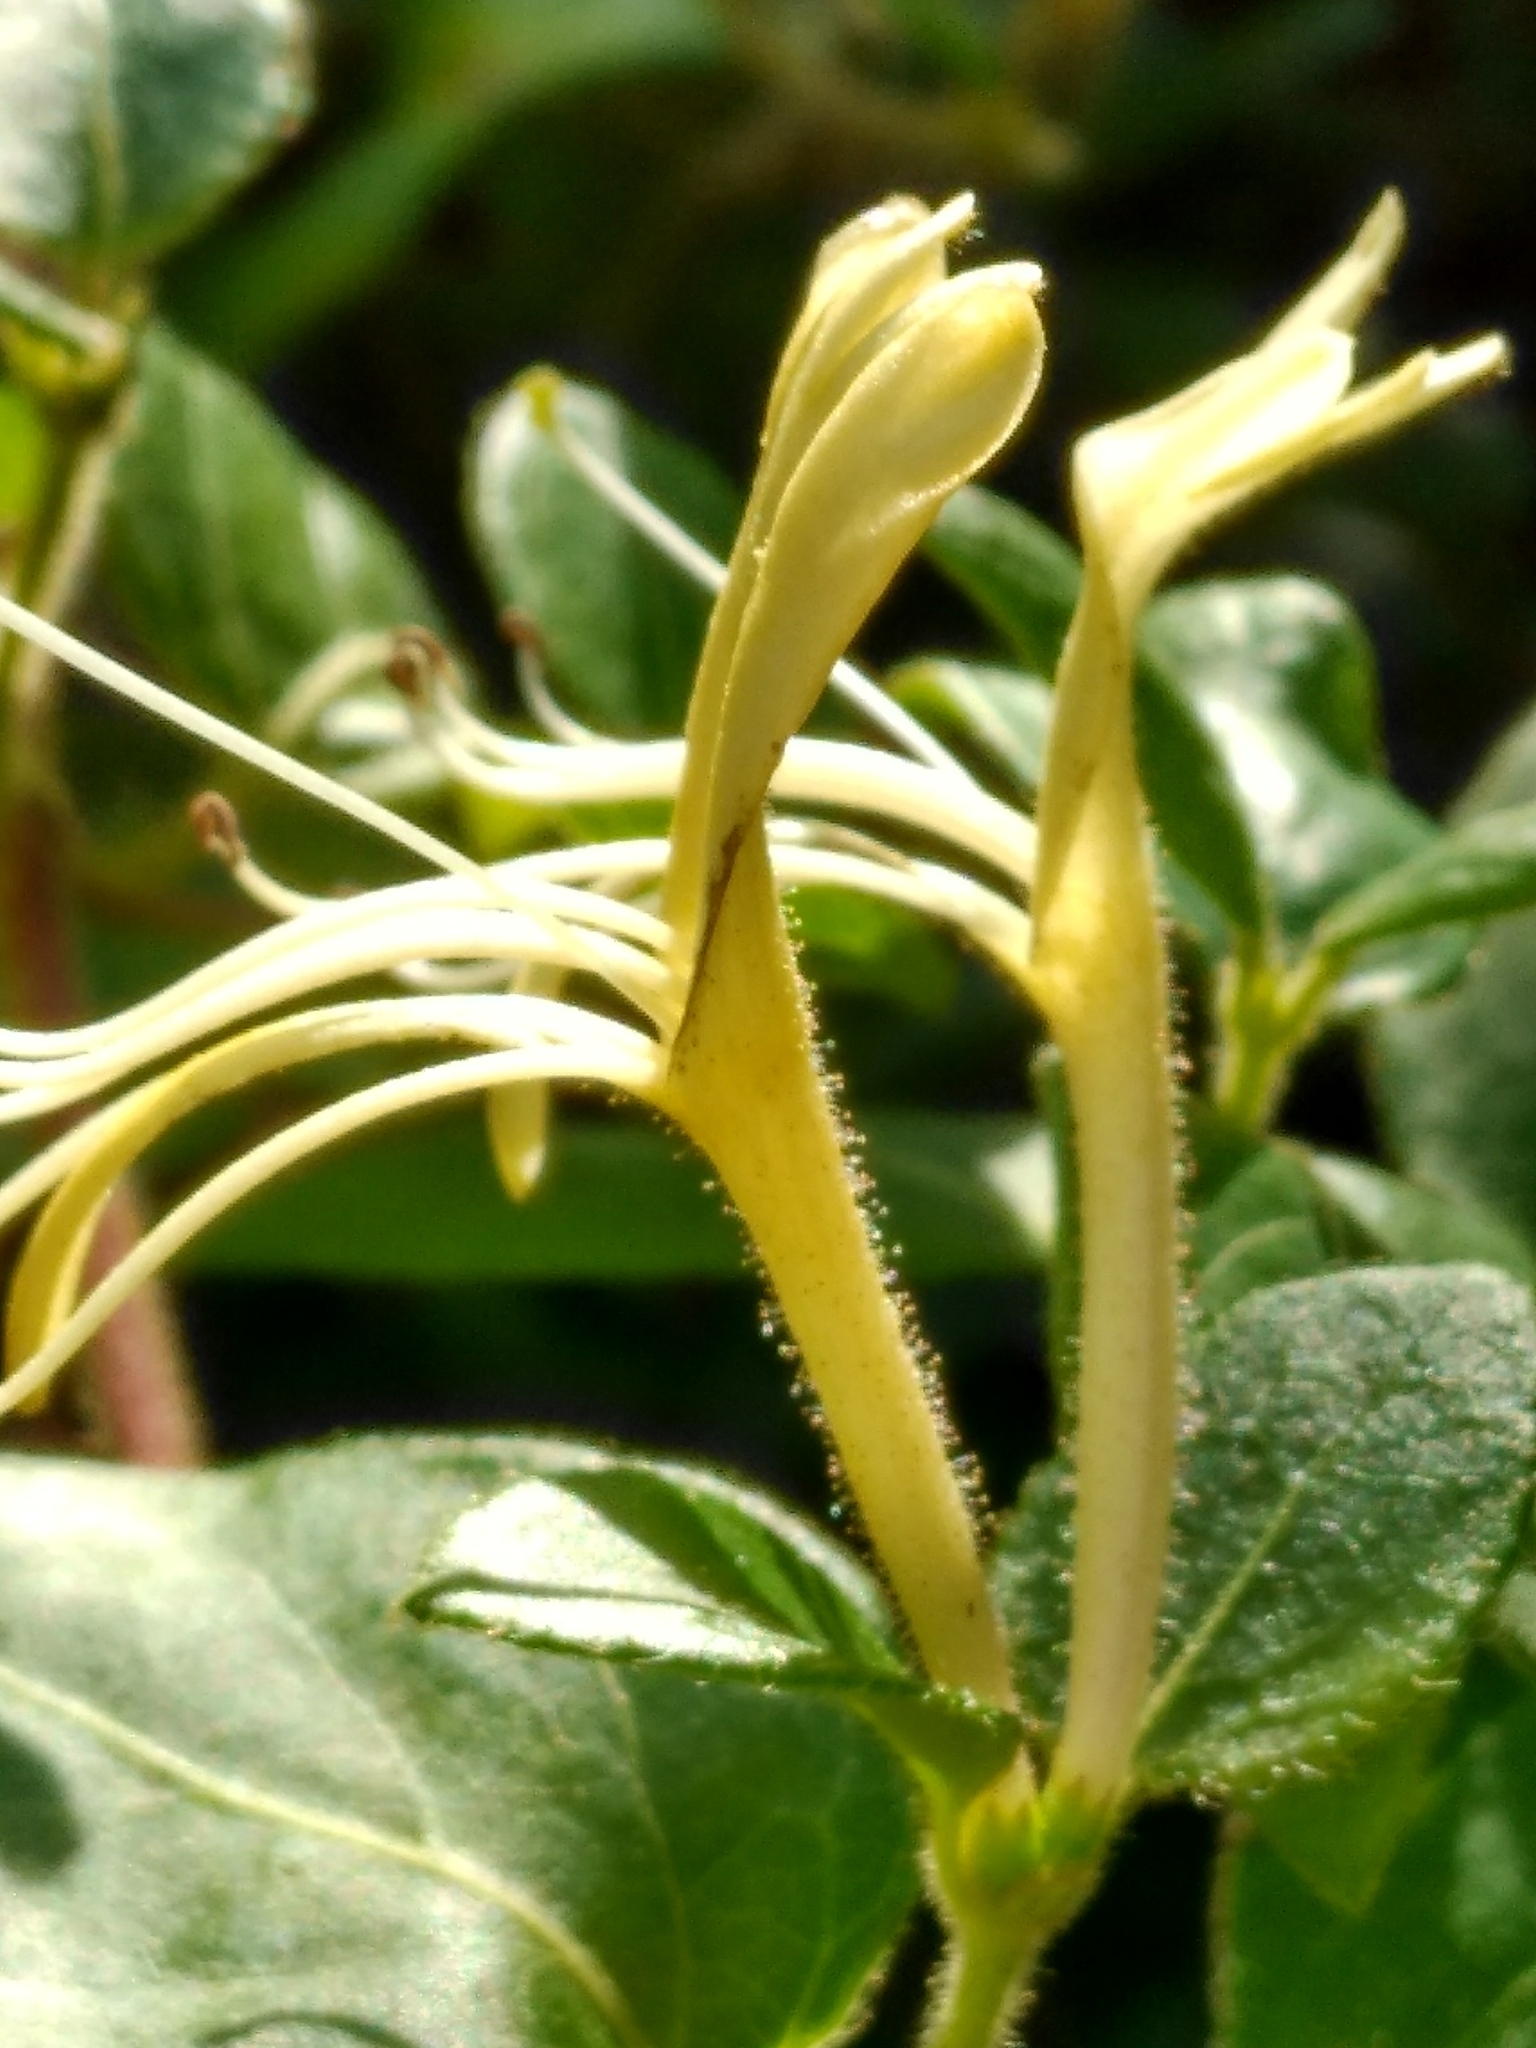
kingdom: Plantae
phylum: Tracheophyta
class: Magnoliopsida
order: Dipsacales
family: Caprifoliaceae
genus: Lonicera
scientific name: Lonicera japonica
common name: Japanese honeysuckle
